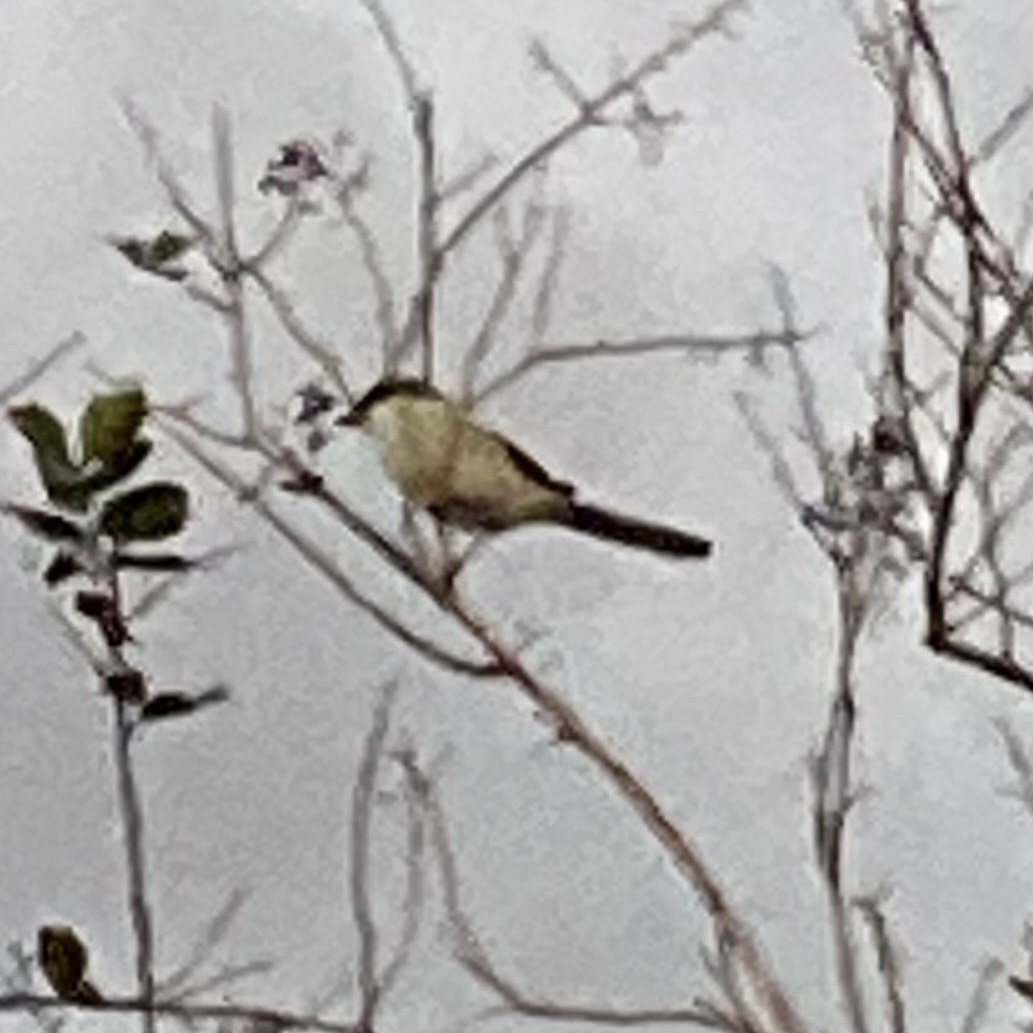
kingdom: Animalia
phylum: Chordata
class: Aves
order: Passeriformes
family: Laniidae
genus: Lanius
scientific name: Lanius ludovicianus
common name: Loggerhead shrike
